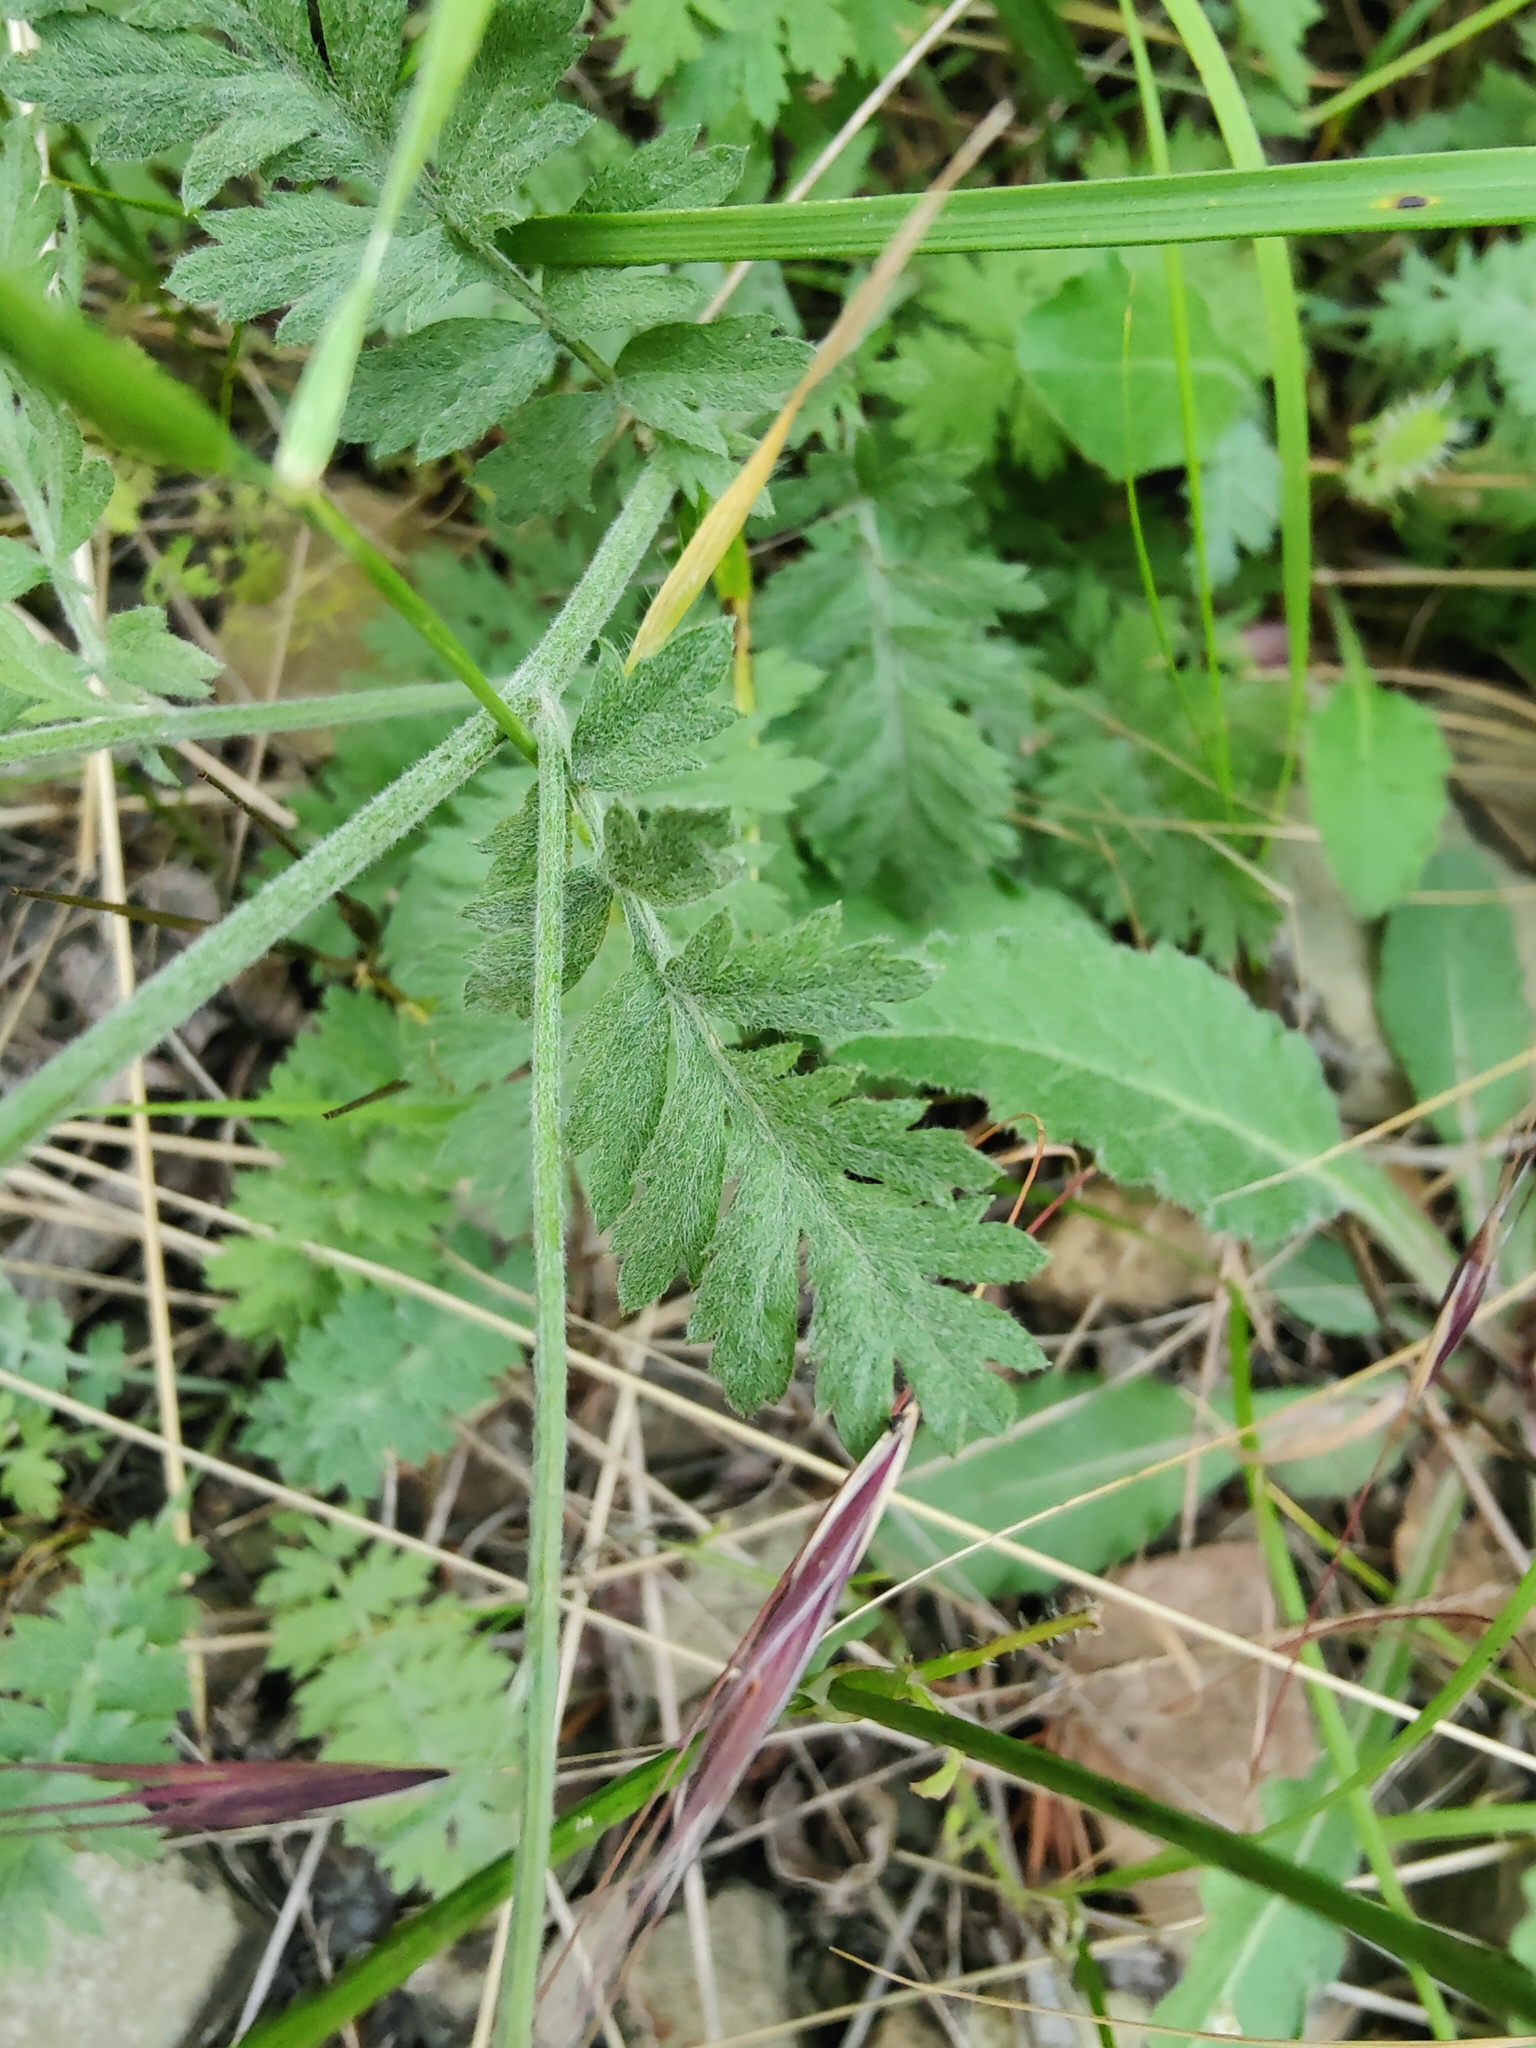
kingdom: Plantae
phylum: Tracheophyta
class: Magnoliopsida
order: Asterales
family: Asteraceae
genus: Tanacetum
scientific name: Tanacetum poteriifolium
